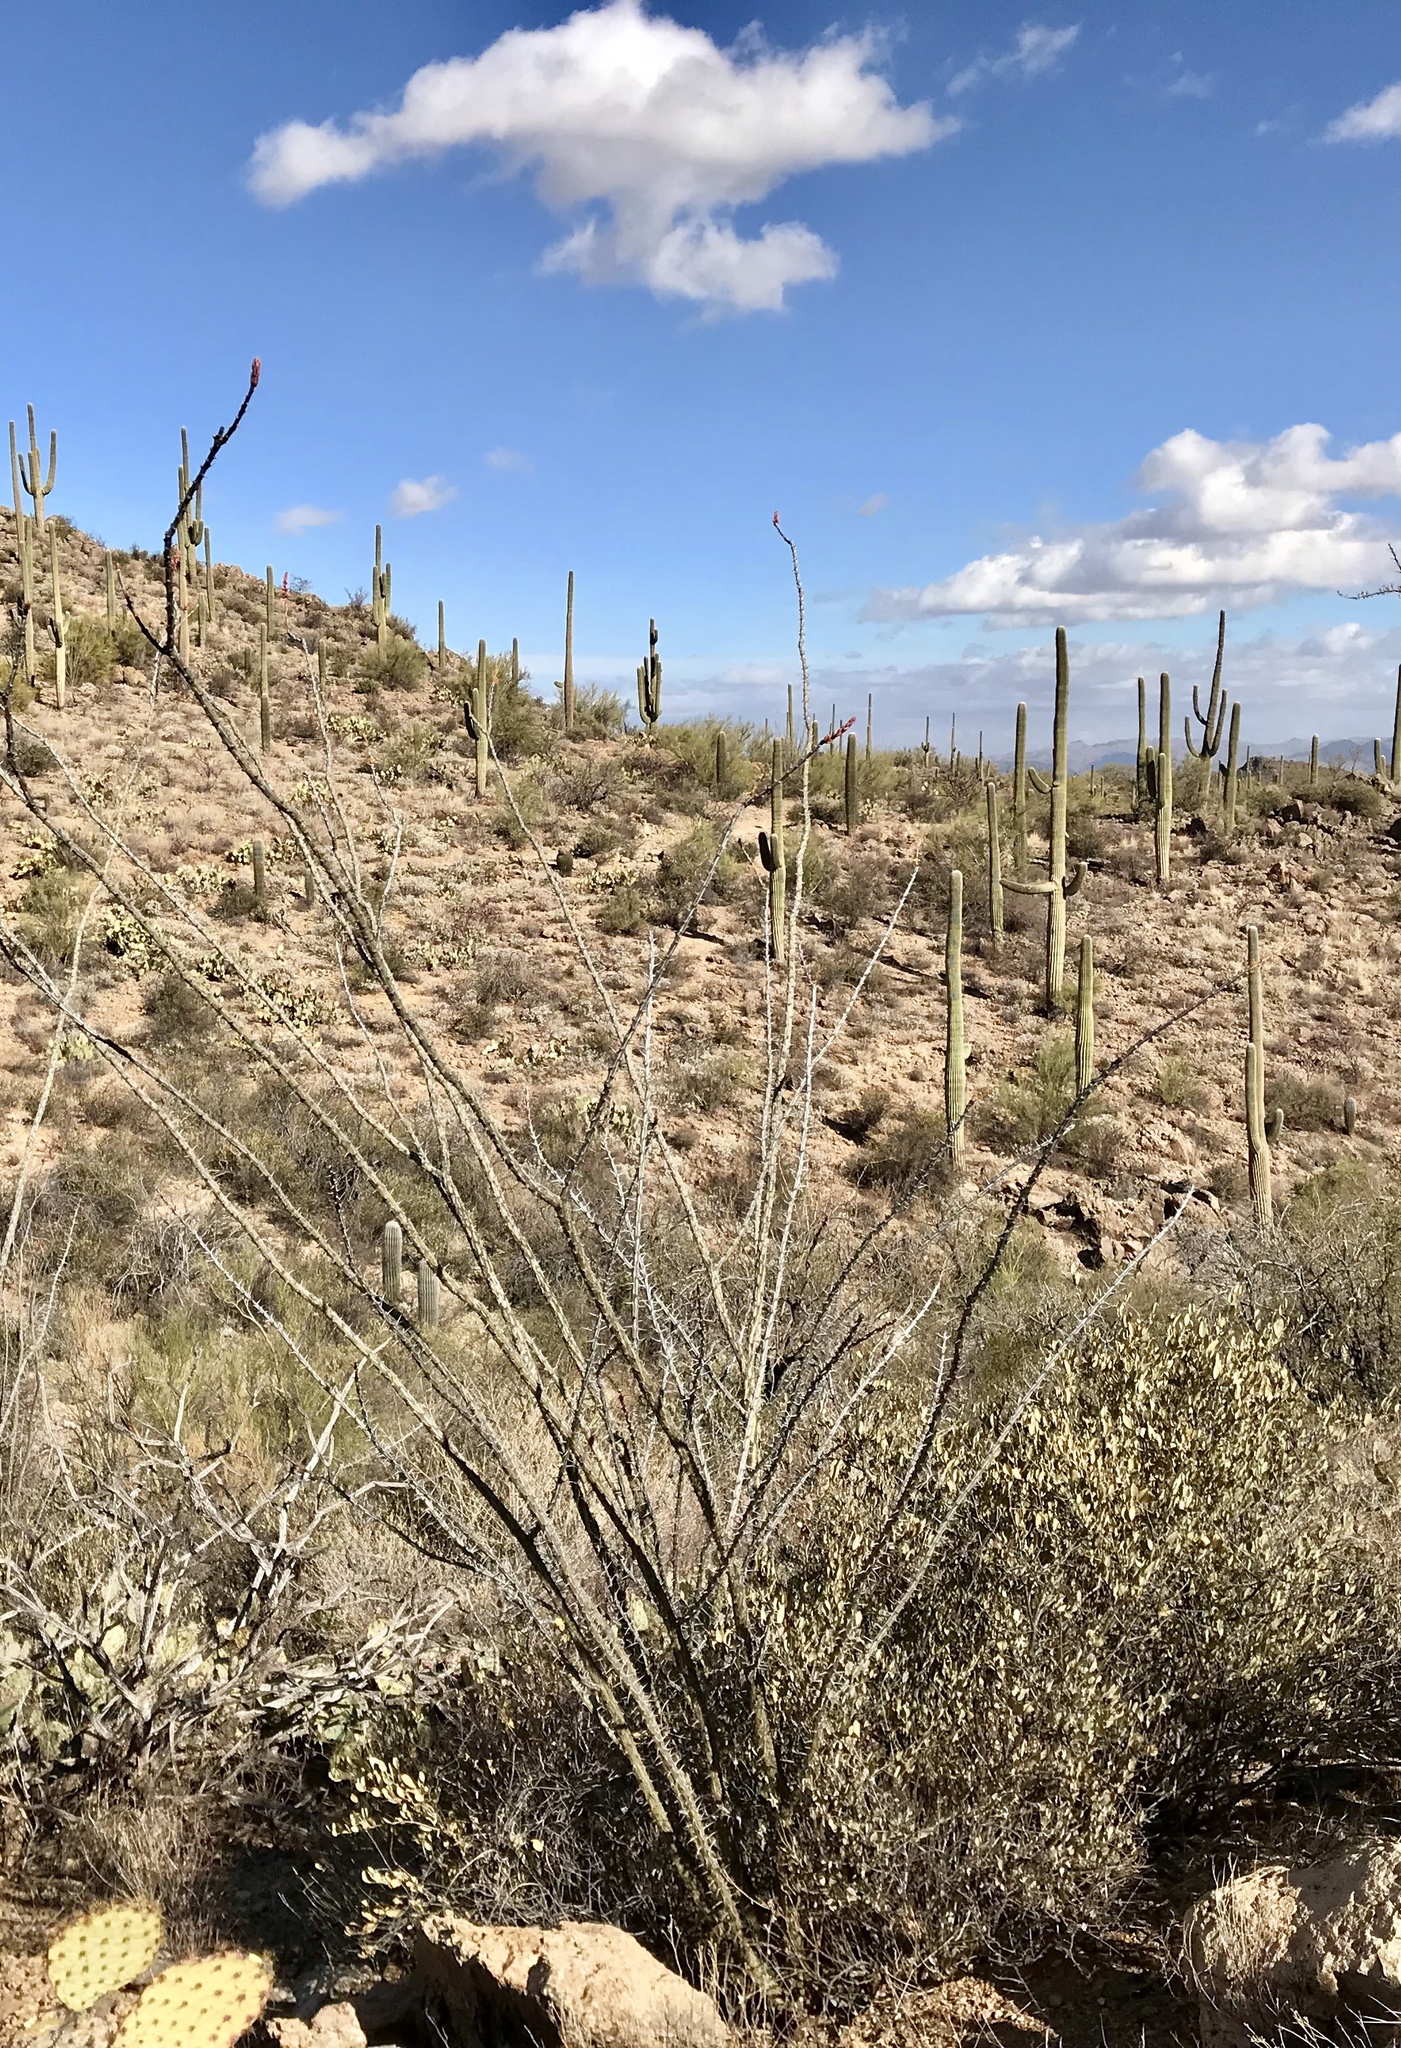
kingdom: Plantae
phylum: Tracheophyta
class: Magnoliopsida
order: Ericales
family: Fouquieriaceae
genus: Fouquieria
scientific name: Fouquieria splendens
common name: Vine-cactus
